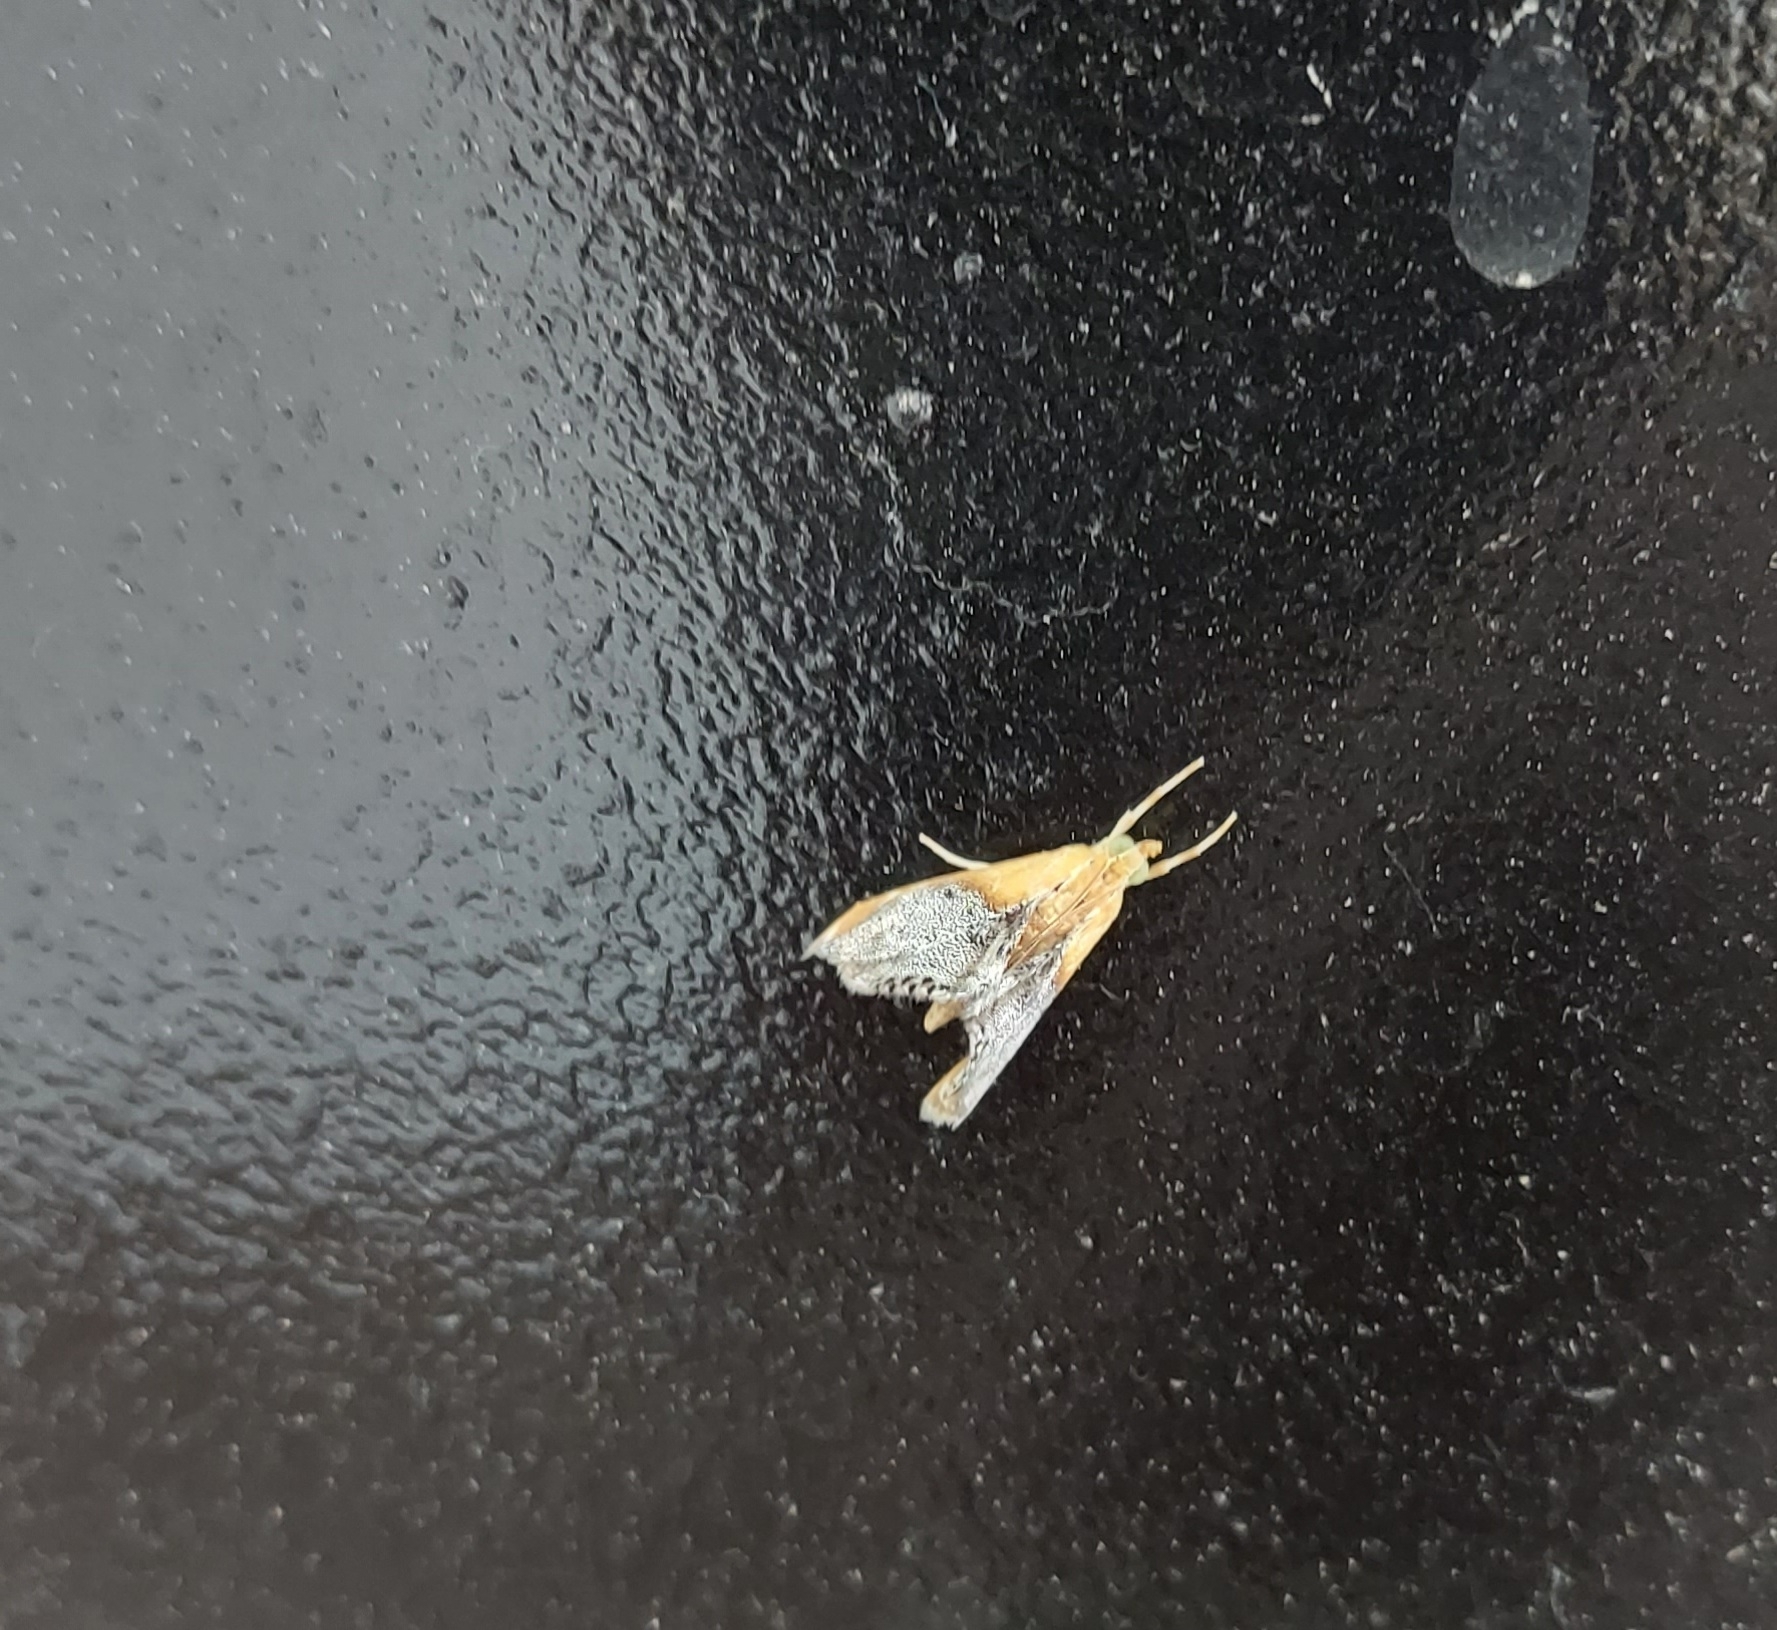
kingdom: Animalia
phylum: Arthropoda
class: Insecta
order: Lepidoptera
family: Crambidae
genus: Chalcoela
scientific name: Chalcoela iphitalis
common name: Sooty-winged chalcoela moth
